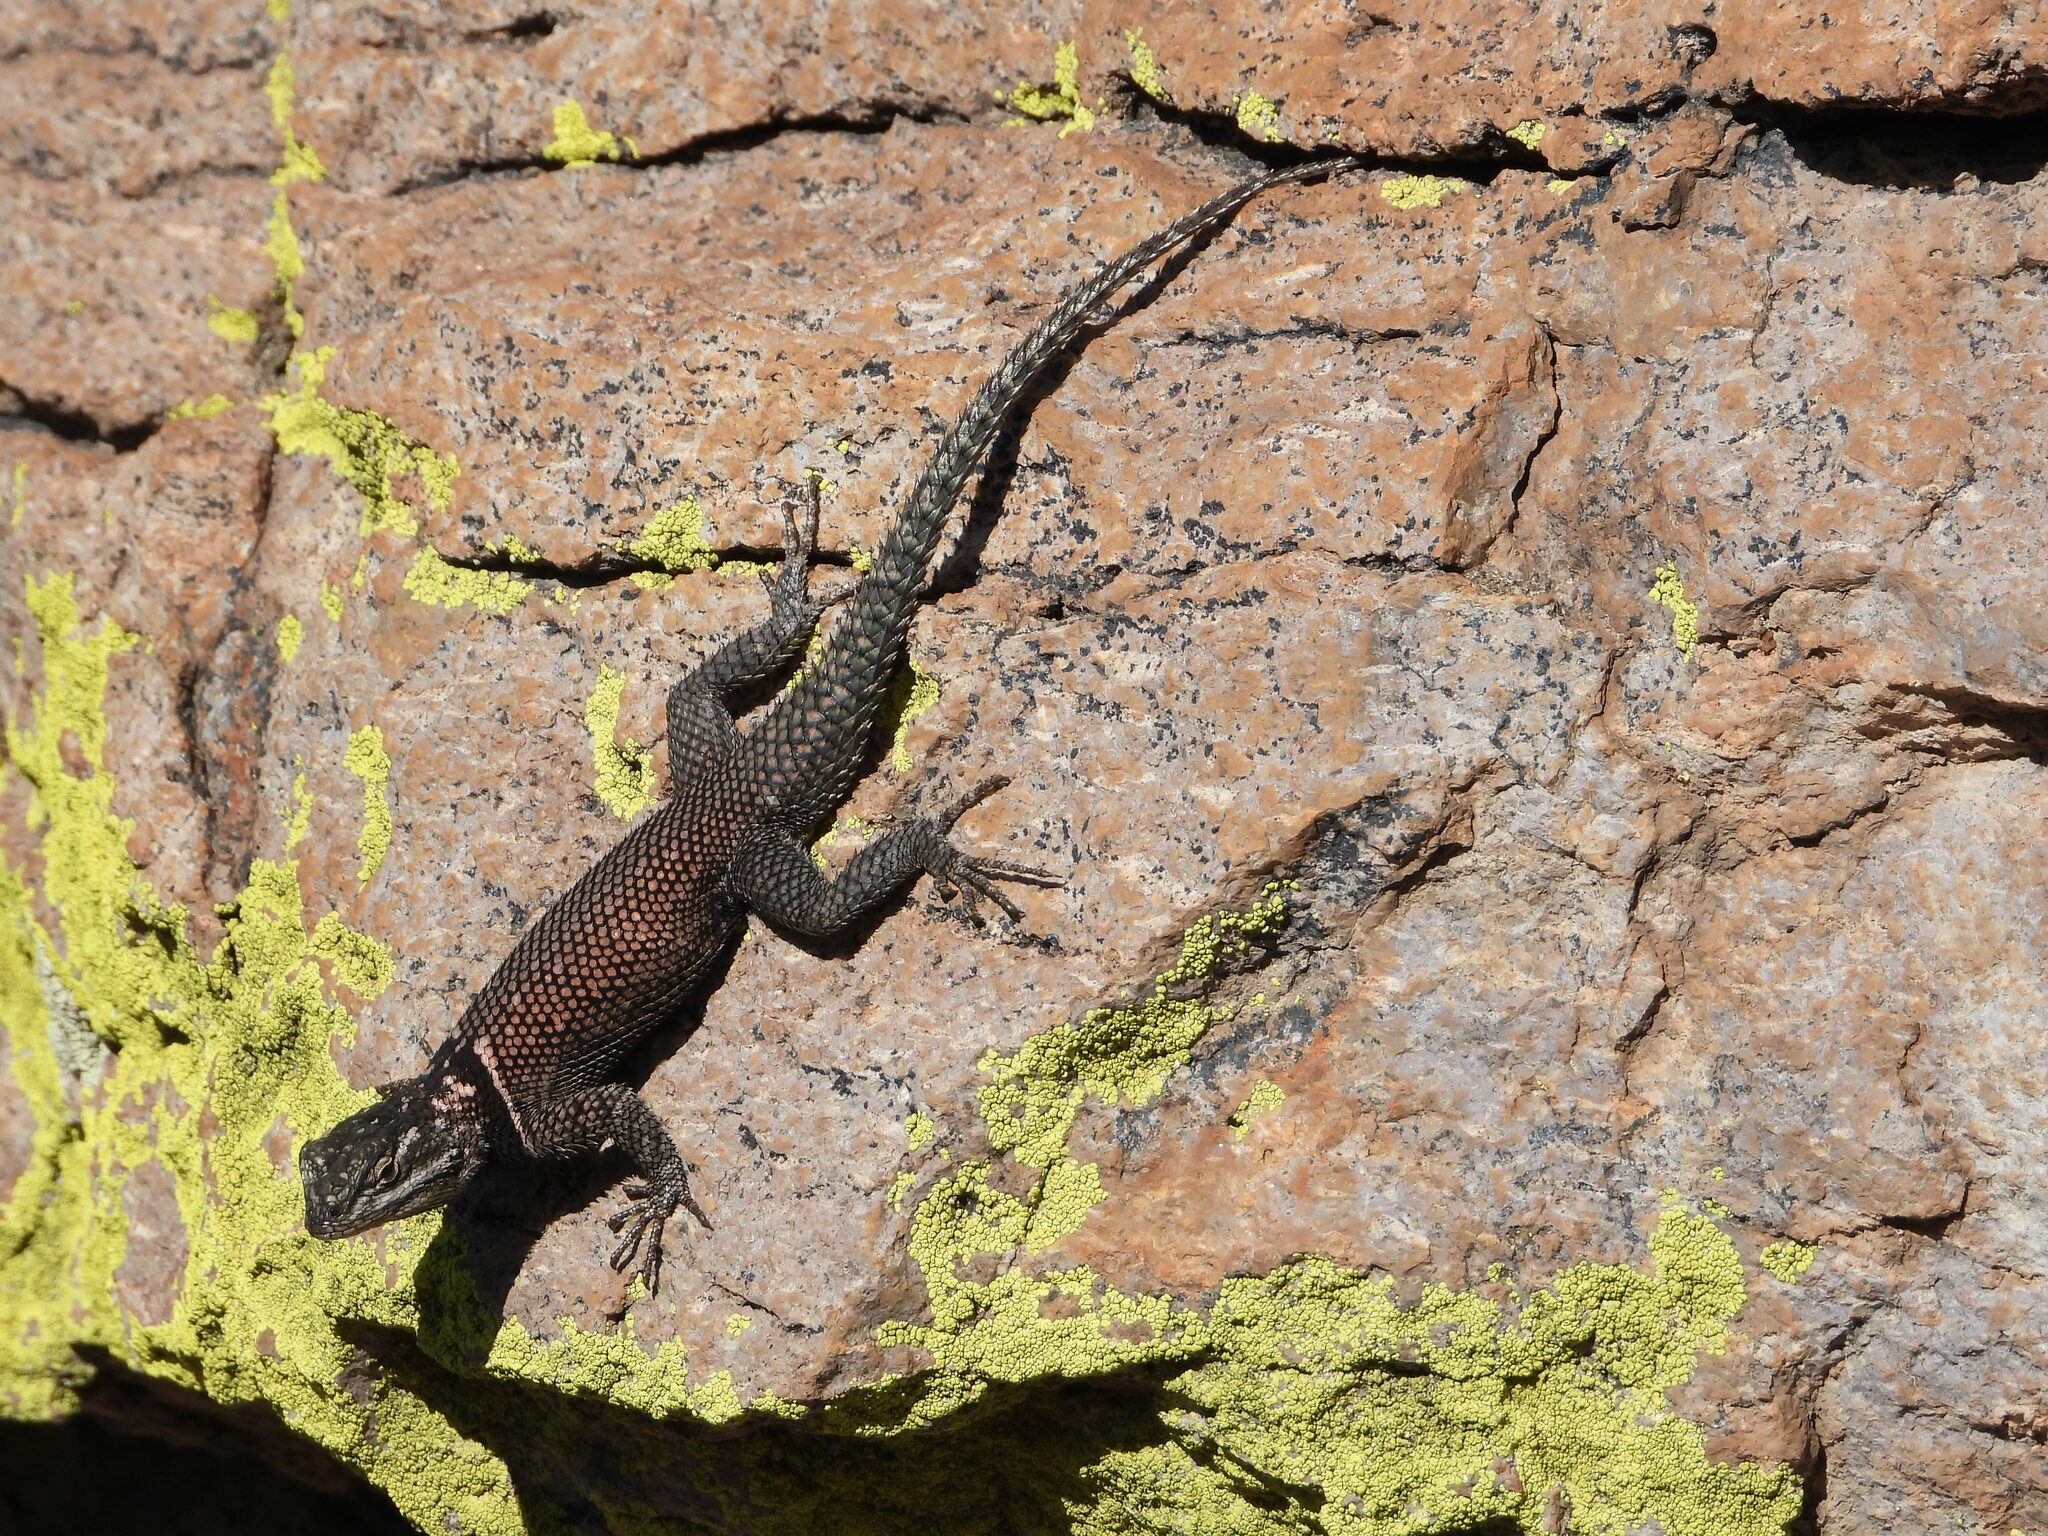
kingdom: Animalia
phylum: Chordata
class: Squamata
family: Phrynosomatidae
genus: Sceloporus
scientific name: Sceloporus jarrovii
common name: Yarrow's spiny lizard
